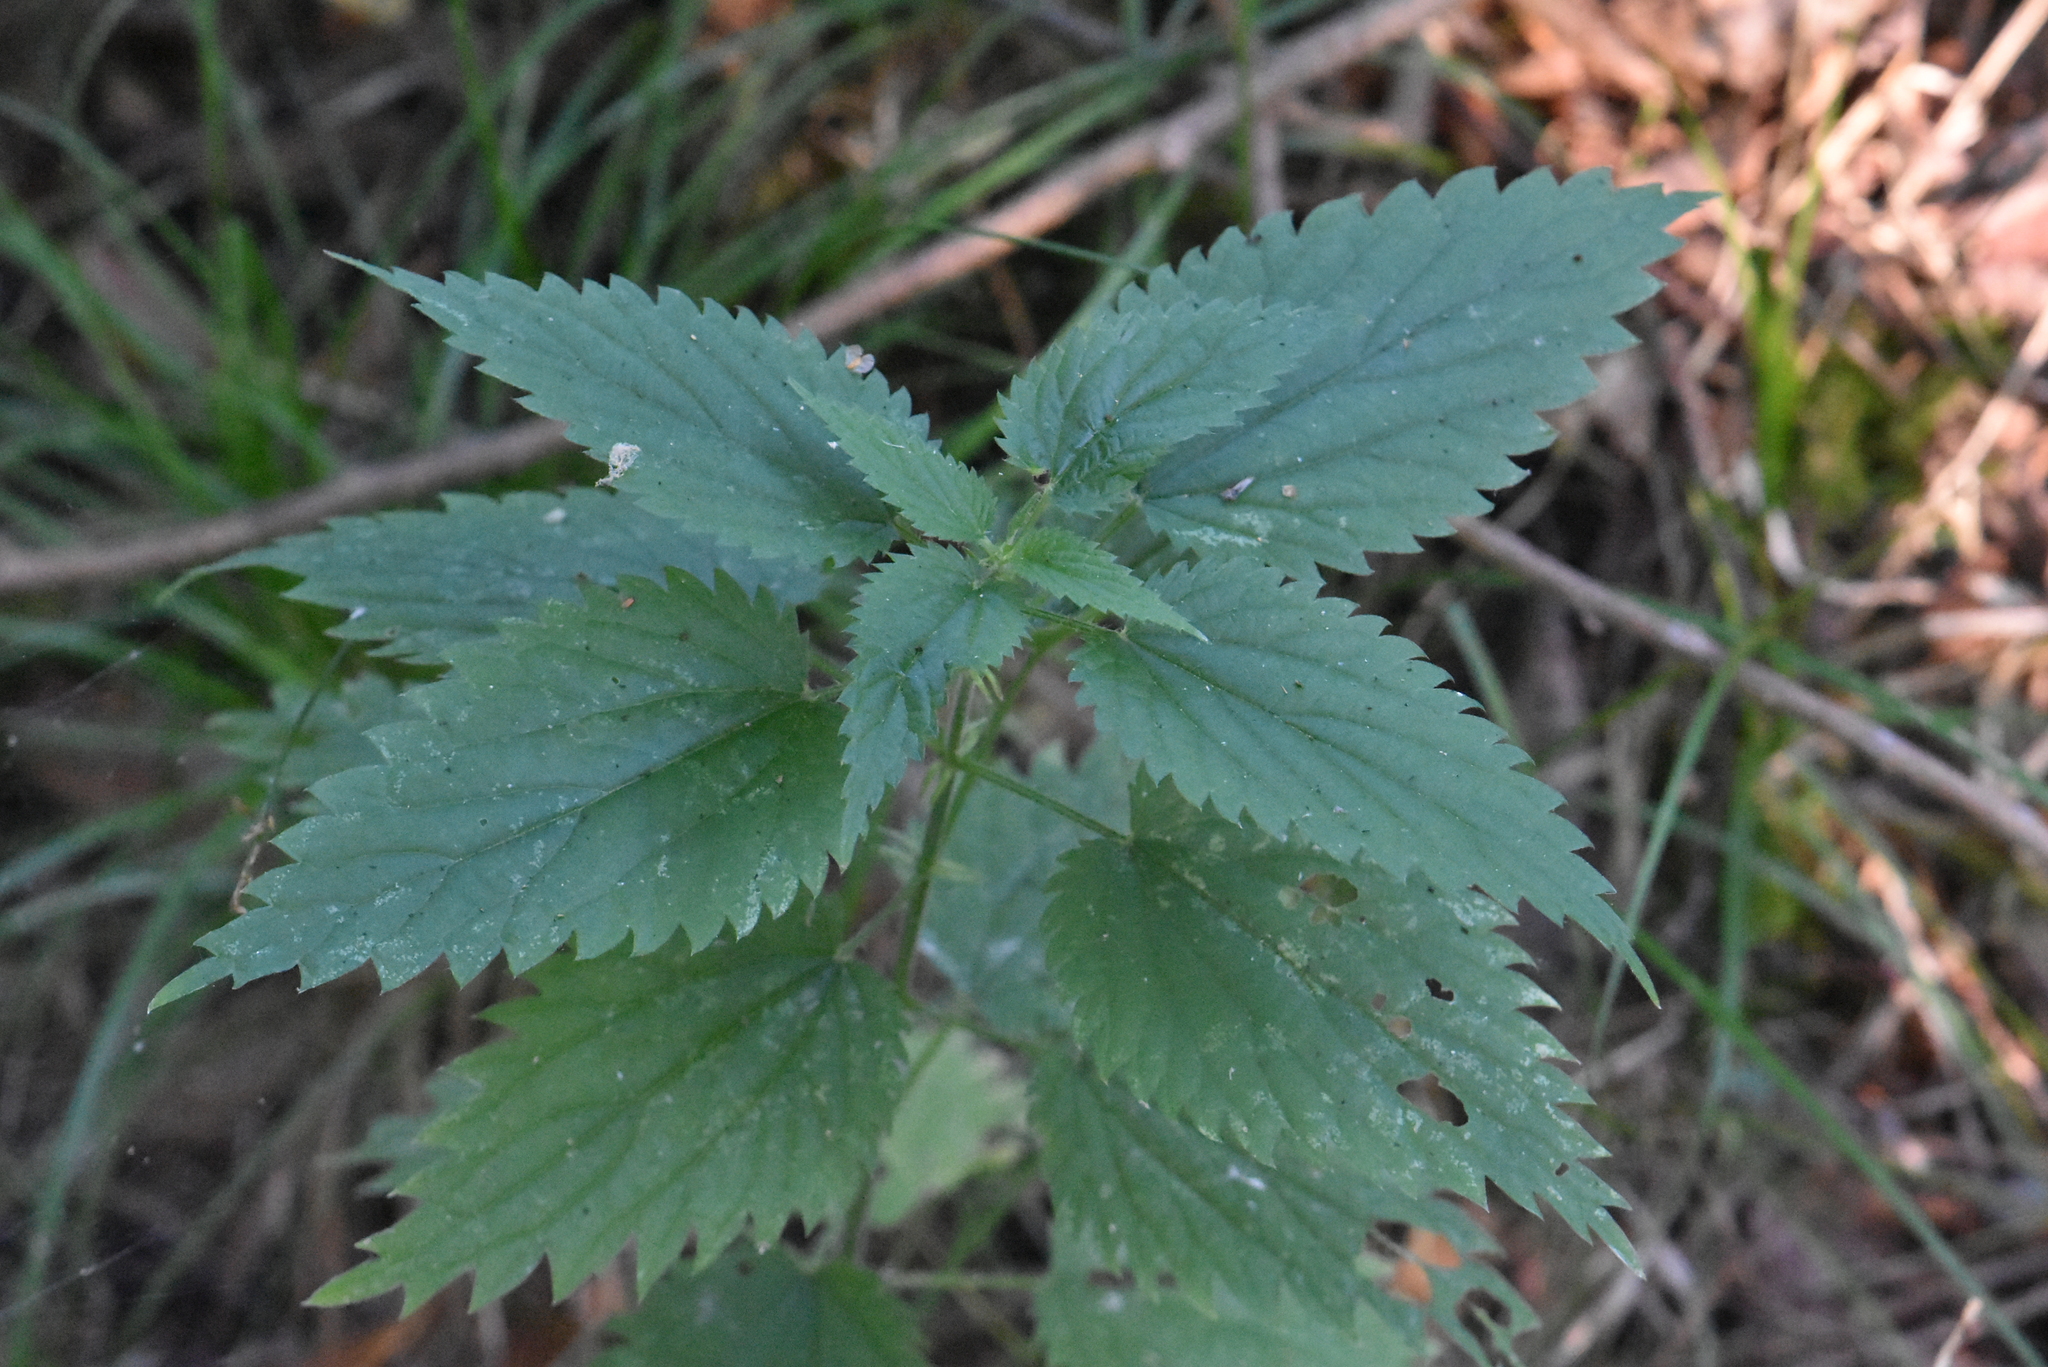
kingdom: Plantae
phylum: Tracheophyta
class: Magnoliopsida
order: Rosales
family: Urticaceae
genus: Urtica
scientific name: Urtica dioica
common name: Common nettle
